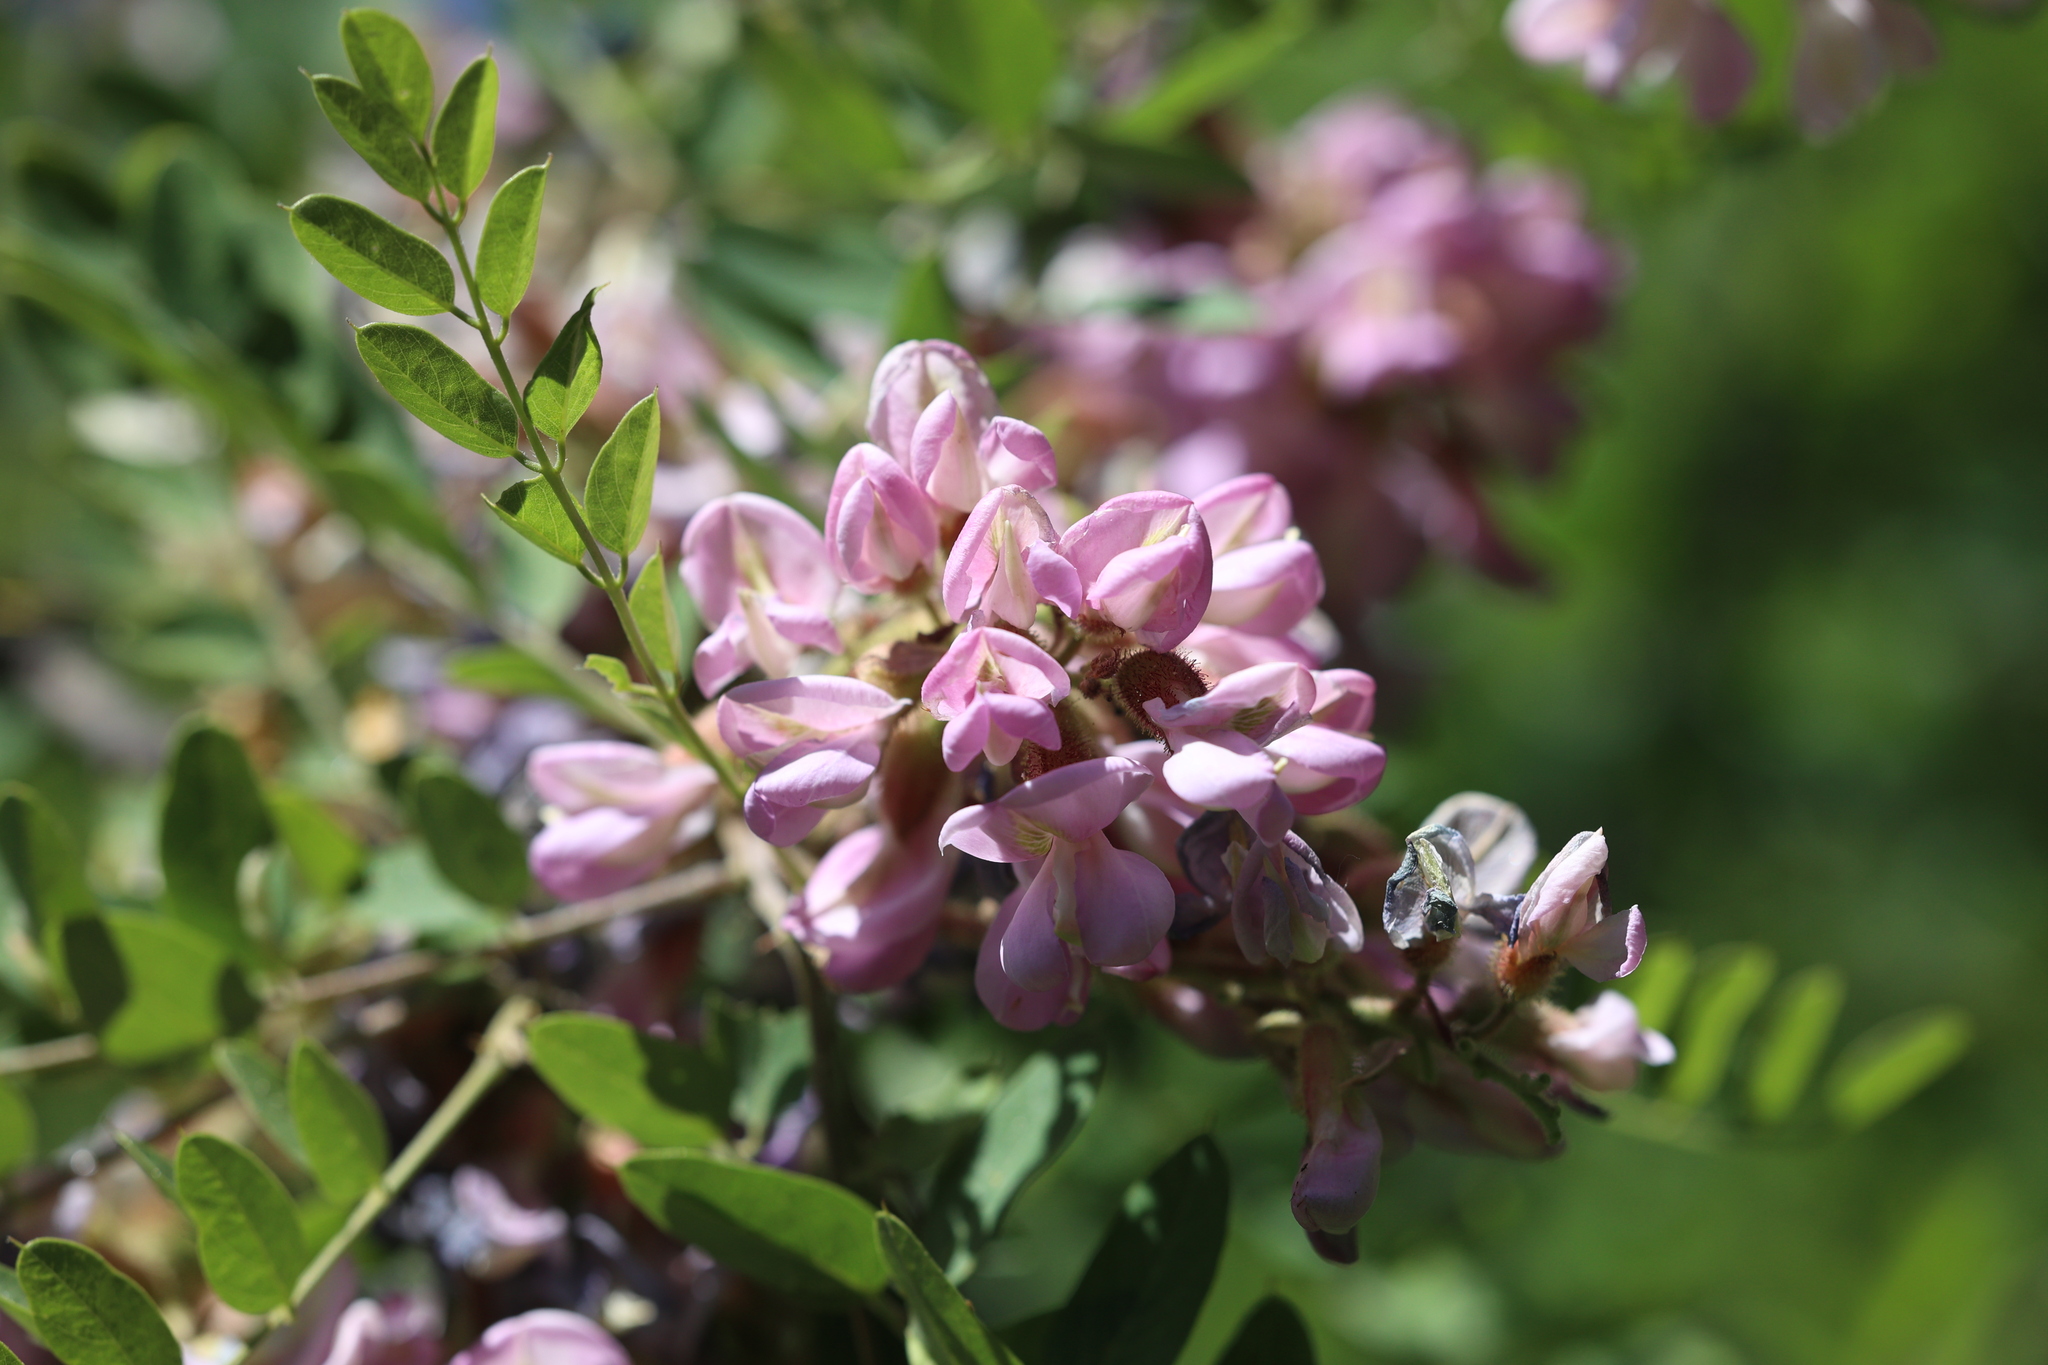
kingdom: Plantae
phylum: Tracheophyta
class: Magnoliopsida
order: Fabales
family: Fabaceae
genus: Robinia
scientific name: Robinia neomexicana
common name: New mexico locust
